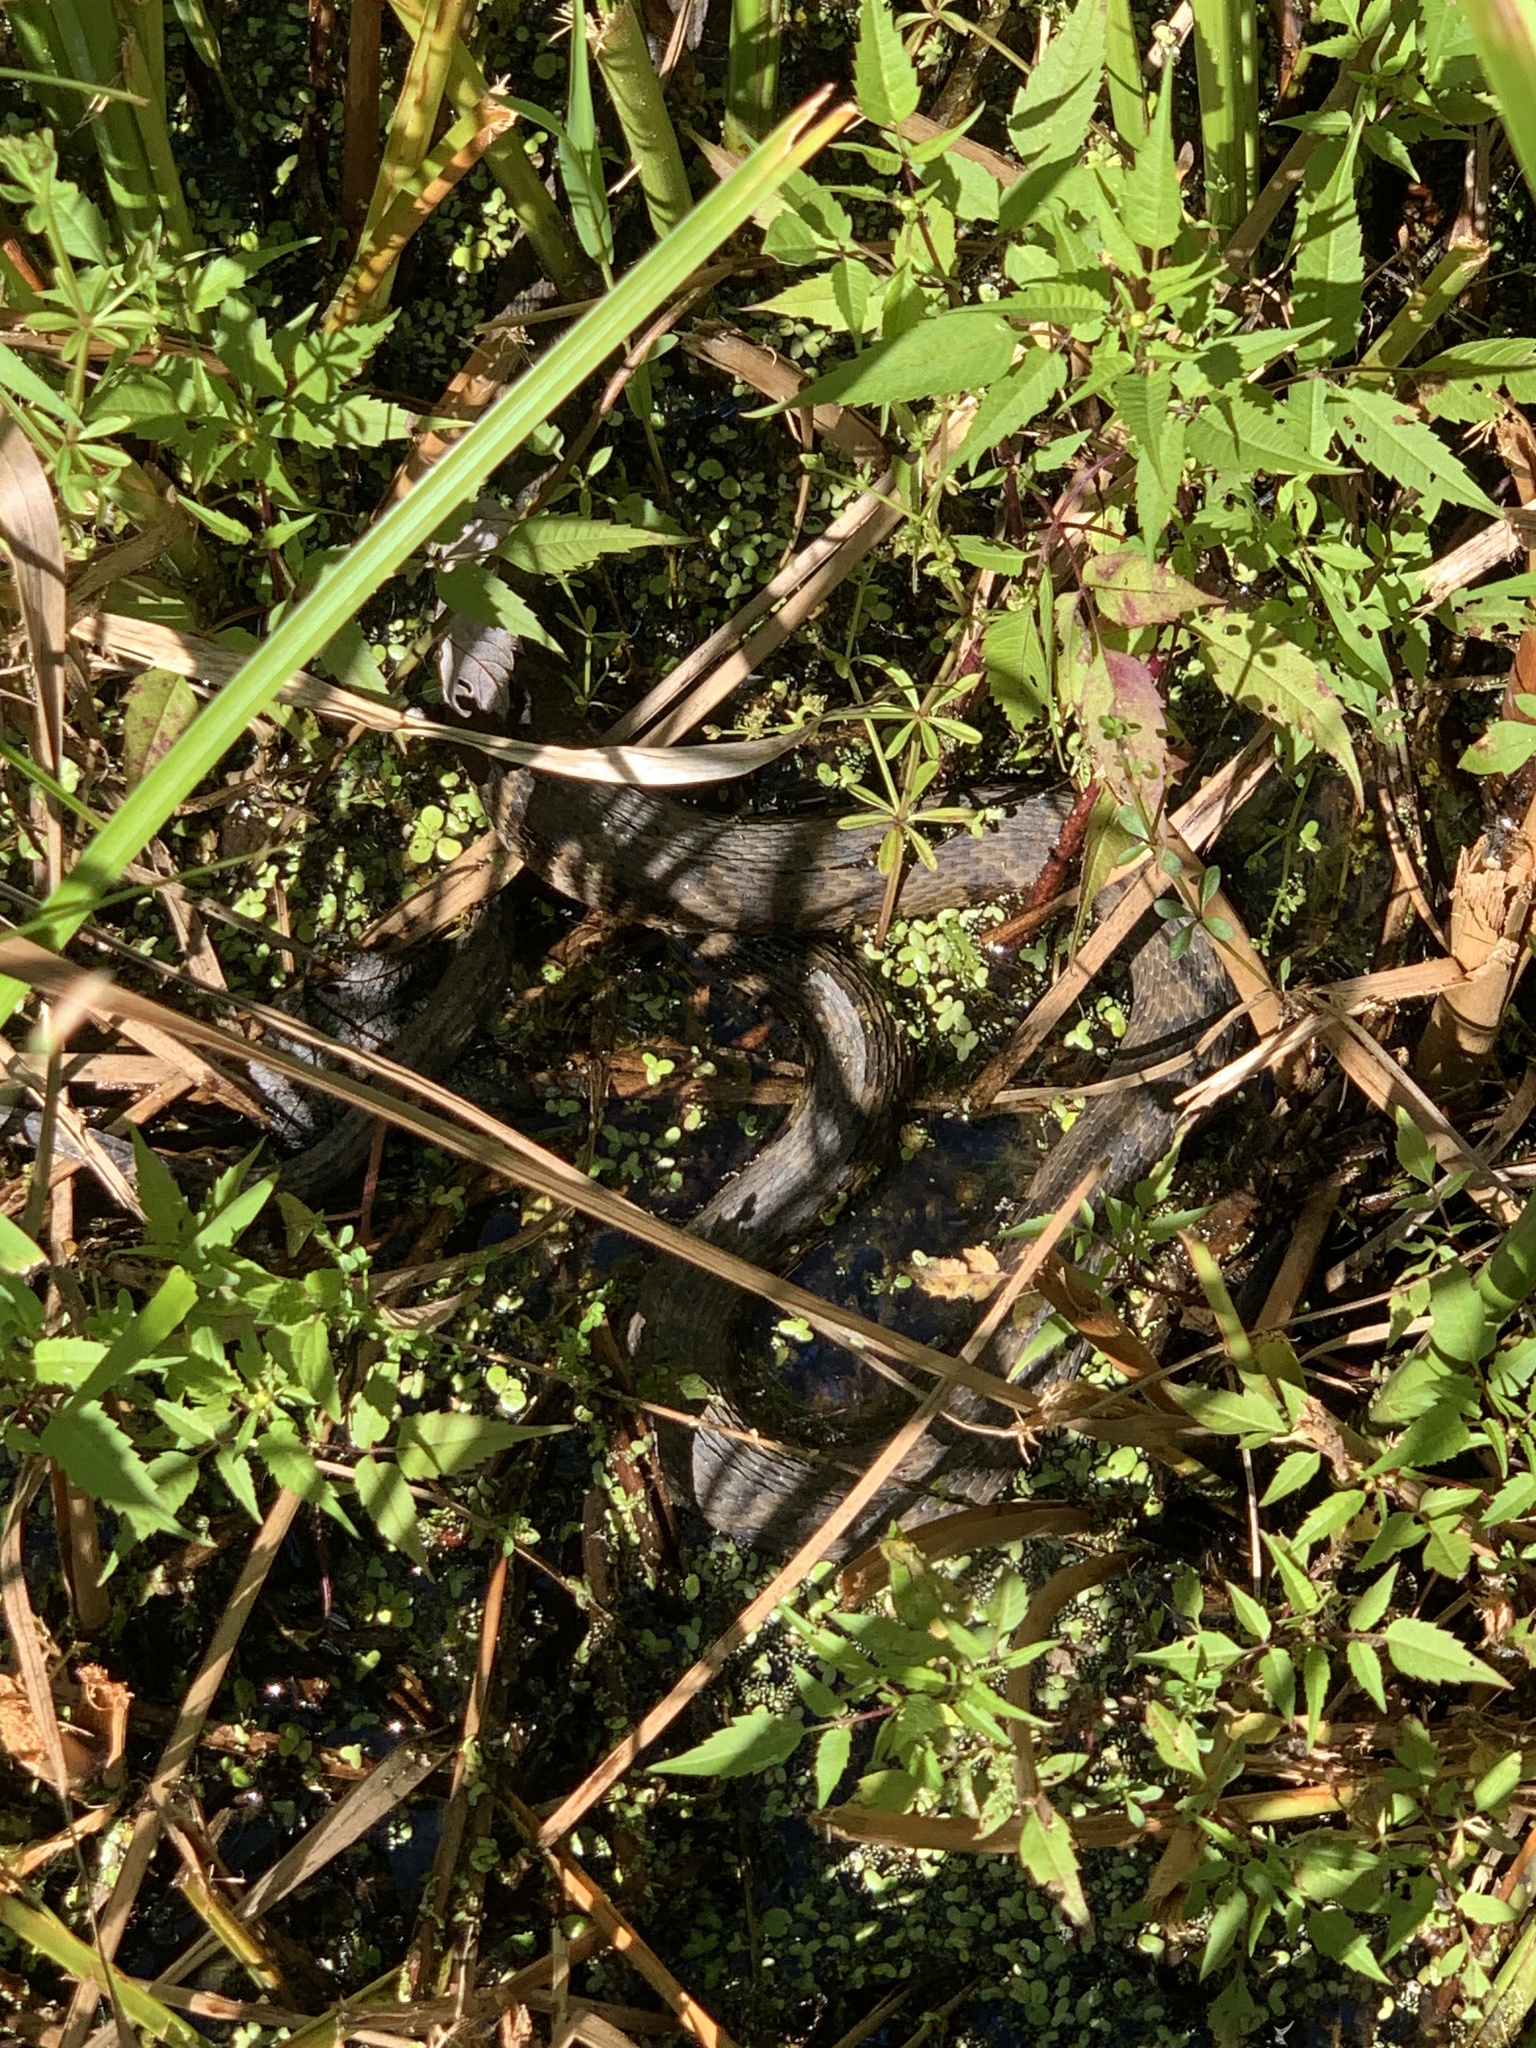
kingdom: Animalia
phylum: Chordata
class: Squamata
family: Colubridae
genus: Nerodia
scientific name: Nerodia sipedon
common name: Northern water snake
